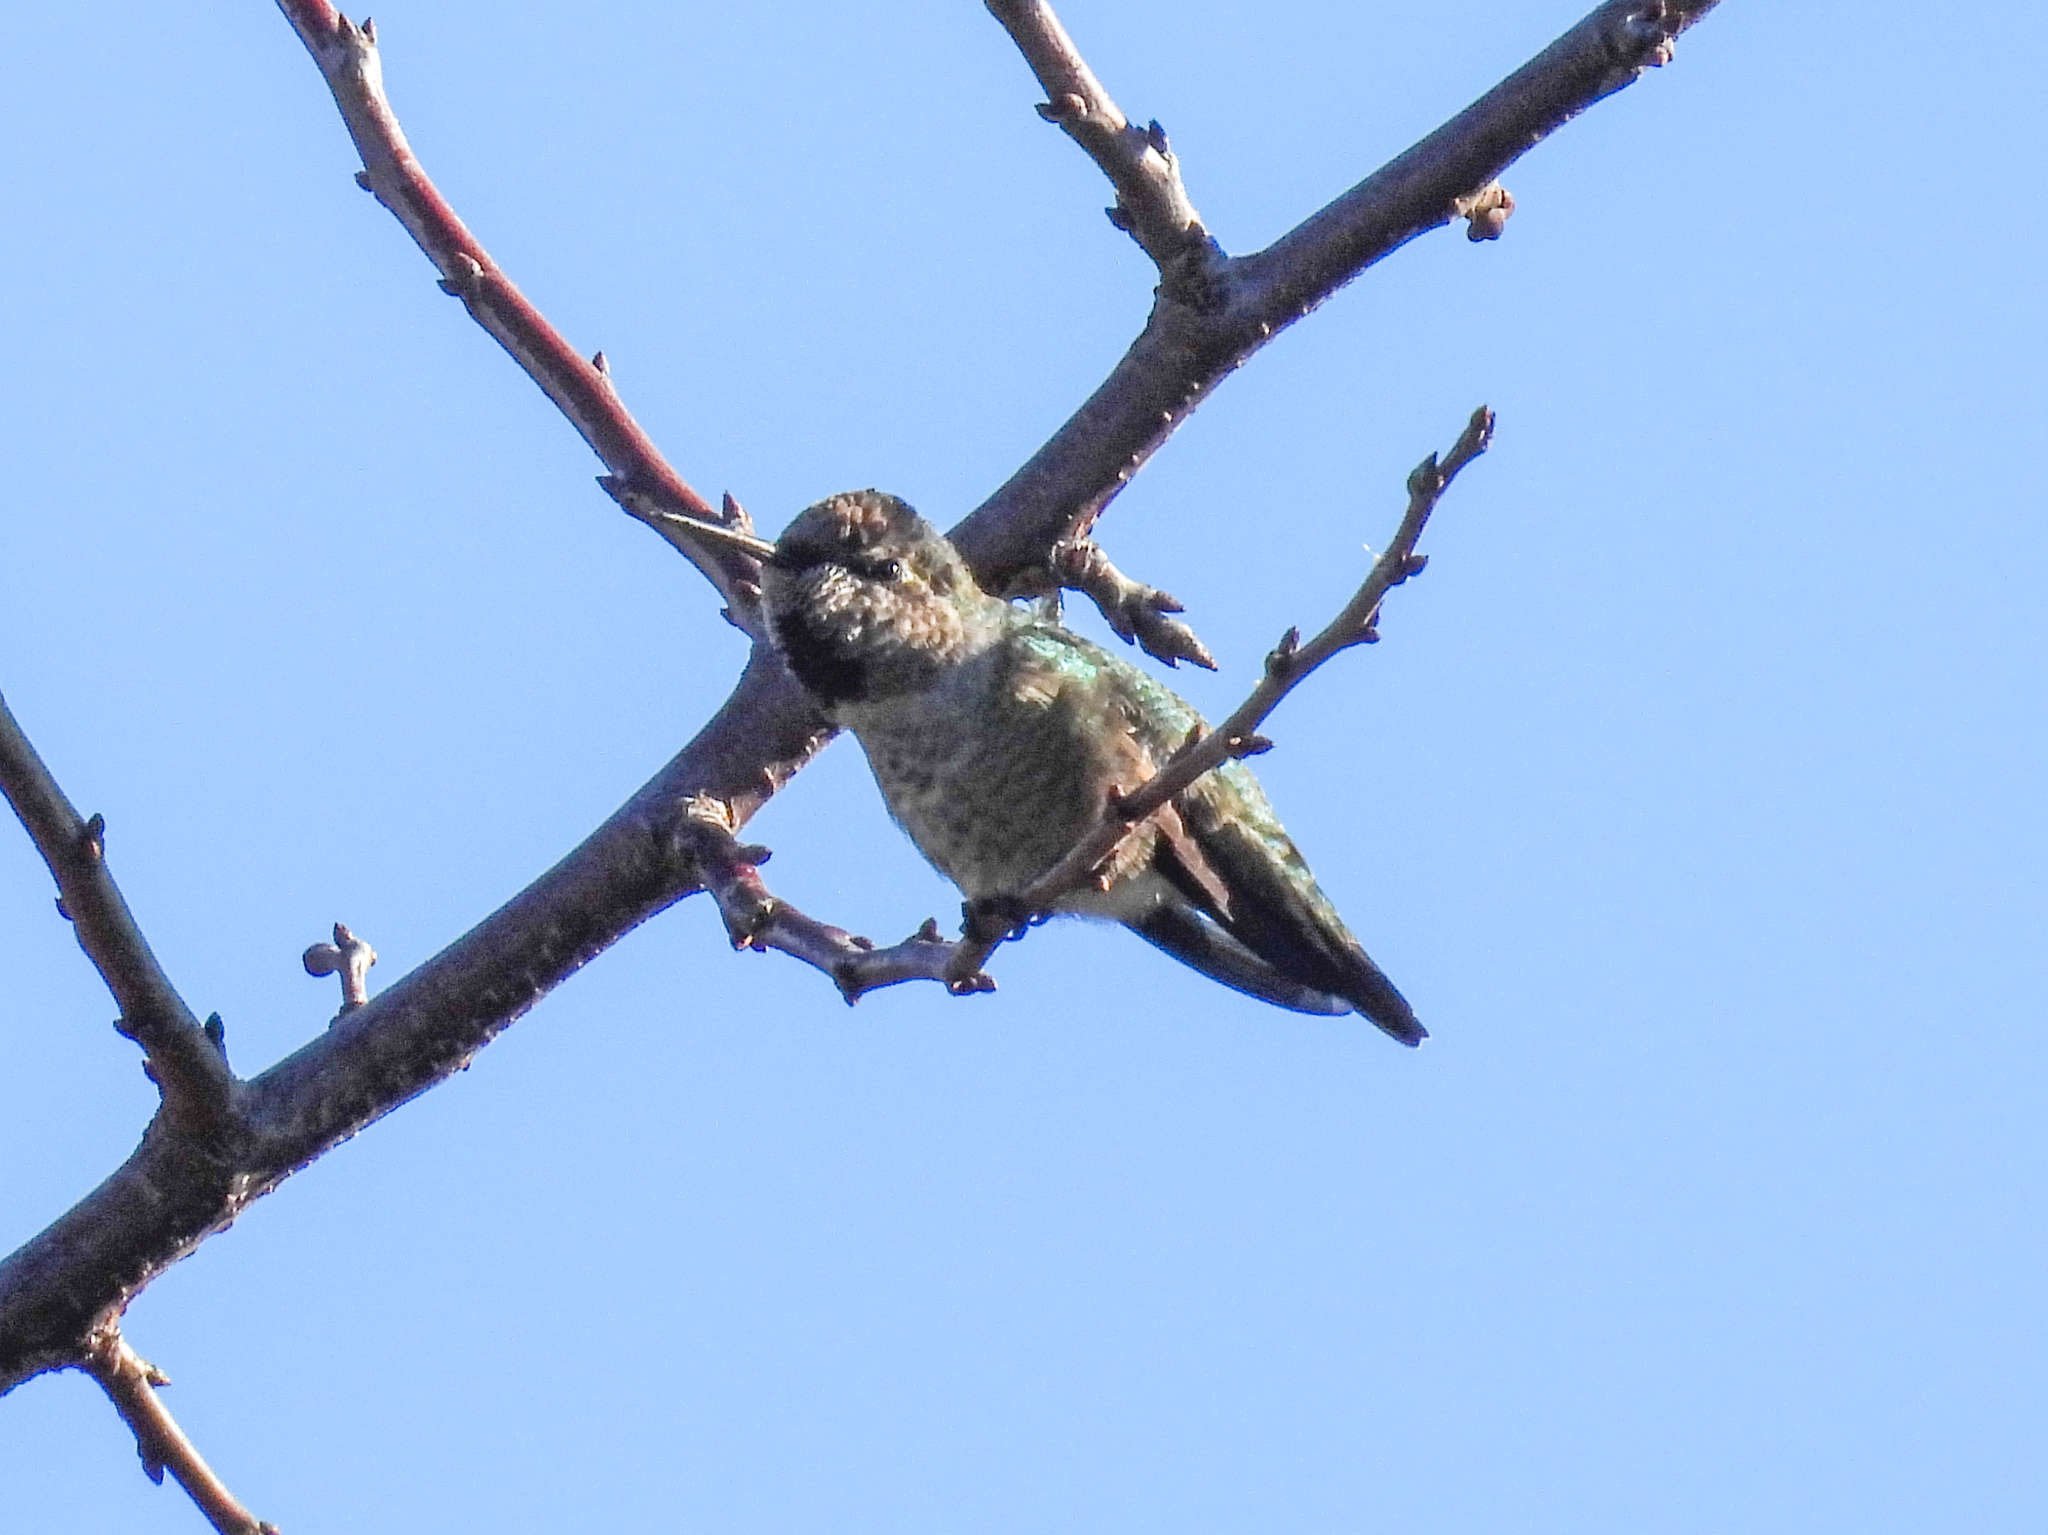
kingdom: Animalia
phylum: Chordata
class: Aves
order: Apodiformes
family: Trochilidae
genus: Calypte
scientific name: Calypte anna
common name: Anna's hummingbird
